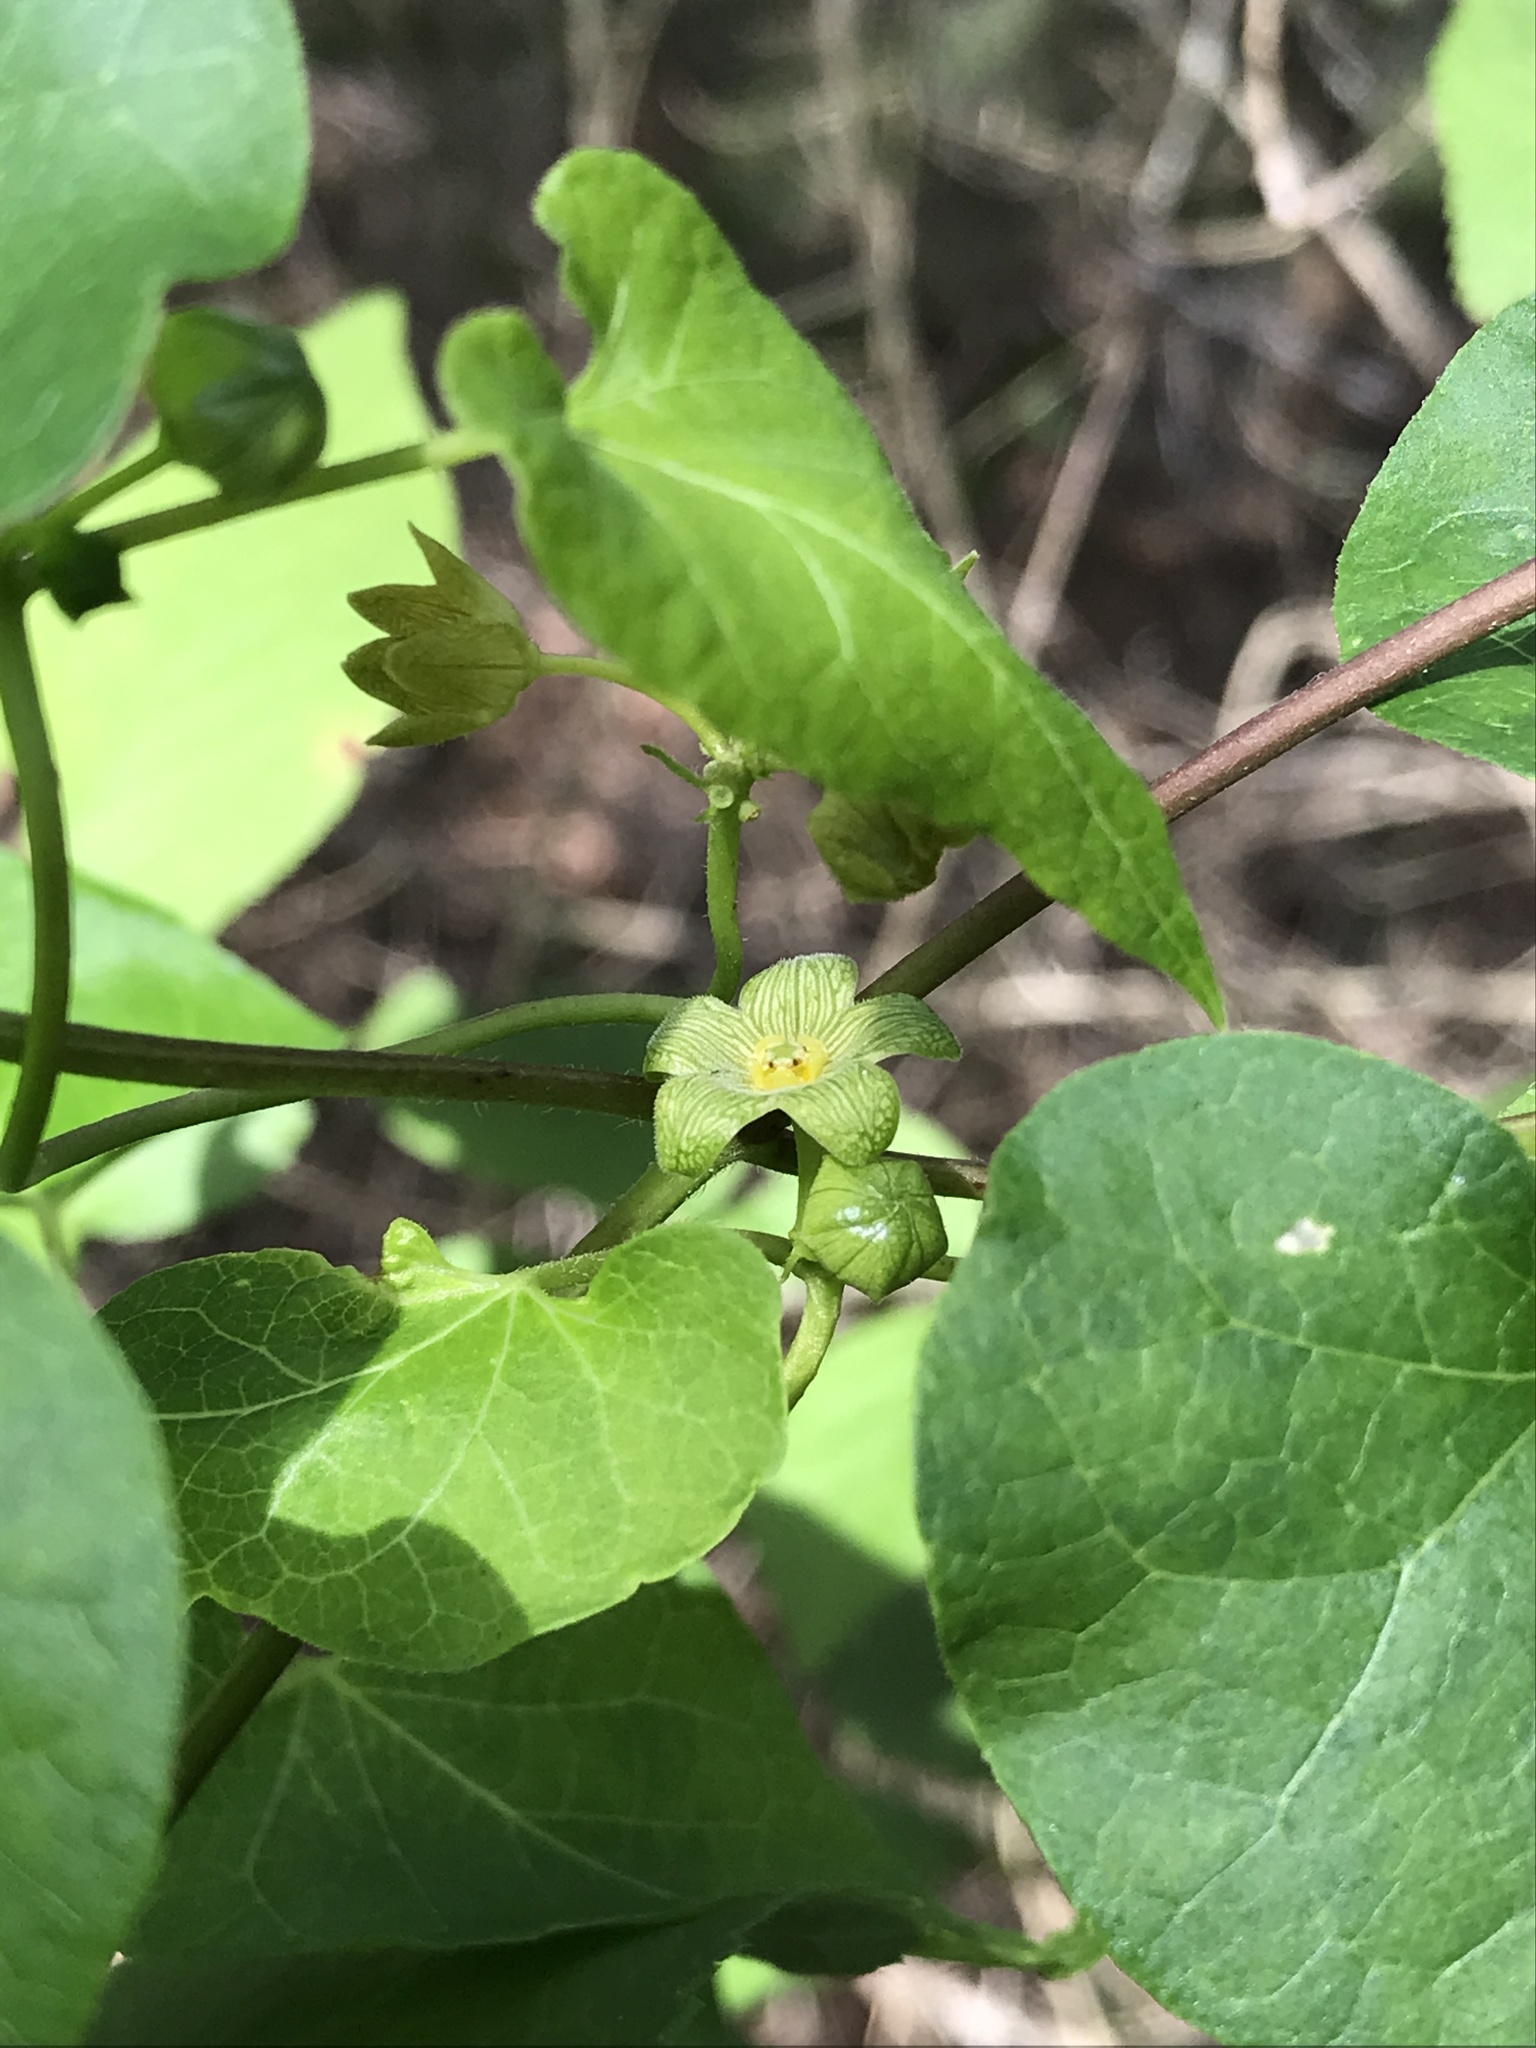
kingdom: Plantae
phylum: Tracheophyta
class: Magnoliopsida
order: Gentianales
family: Apocynaceae
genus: Matelea
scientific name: Matelea edwardsensis
